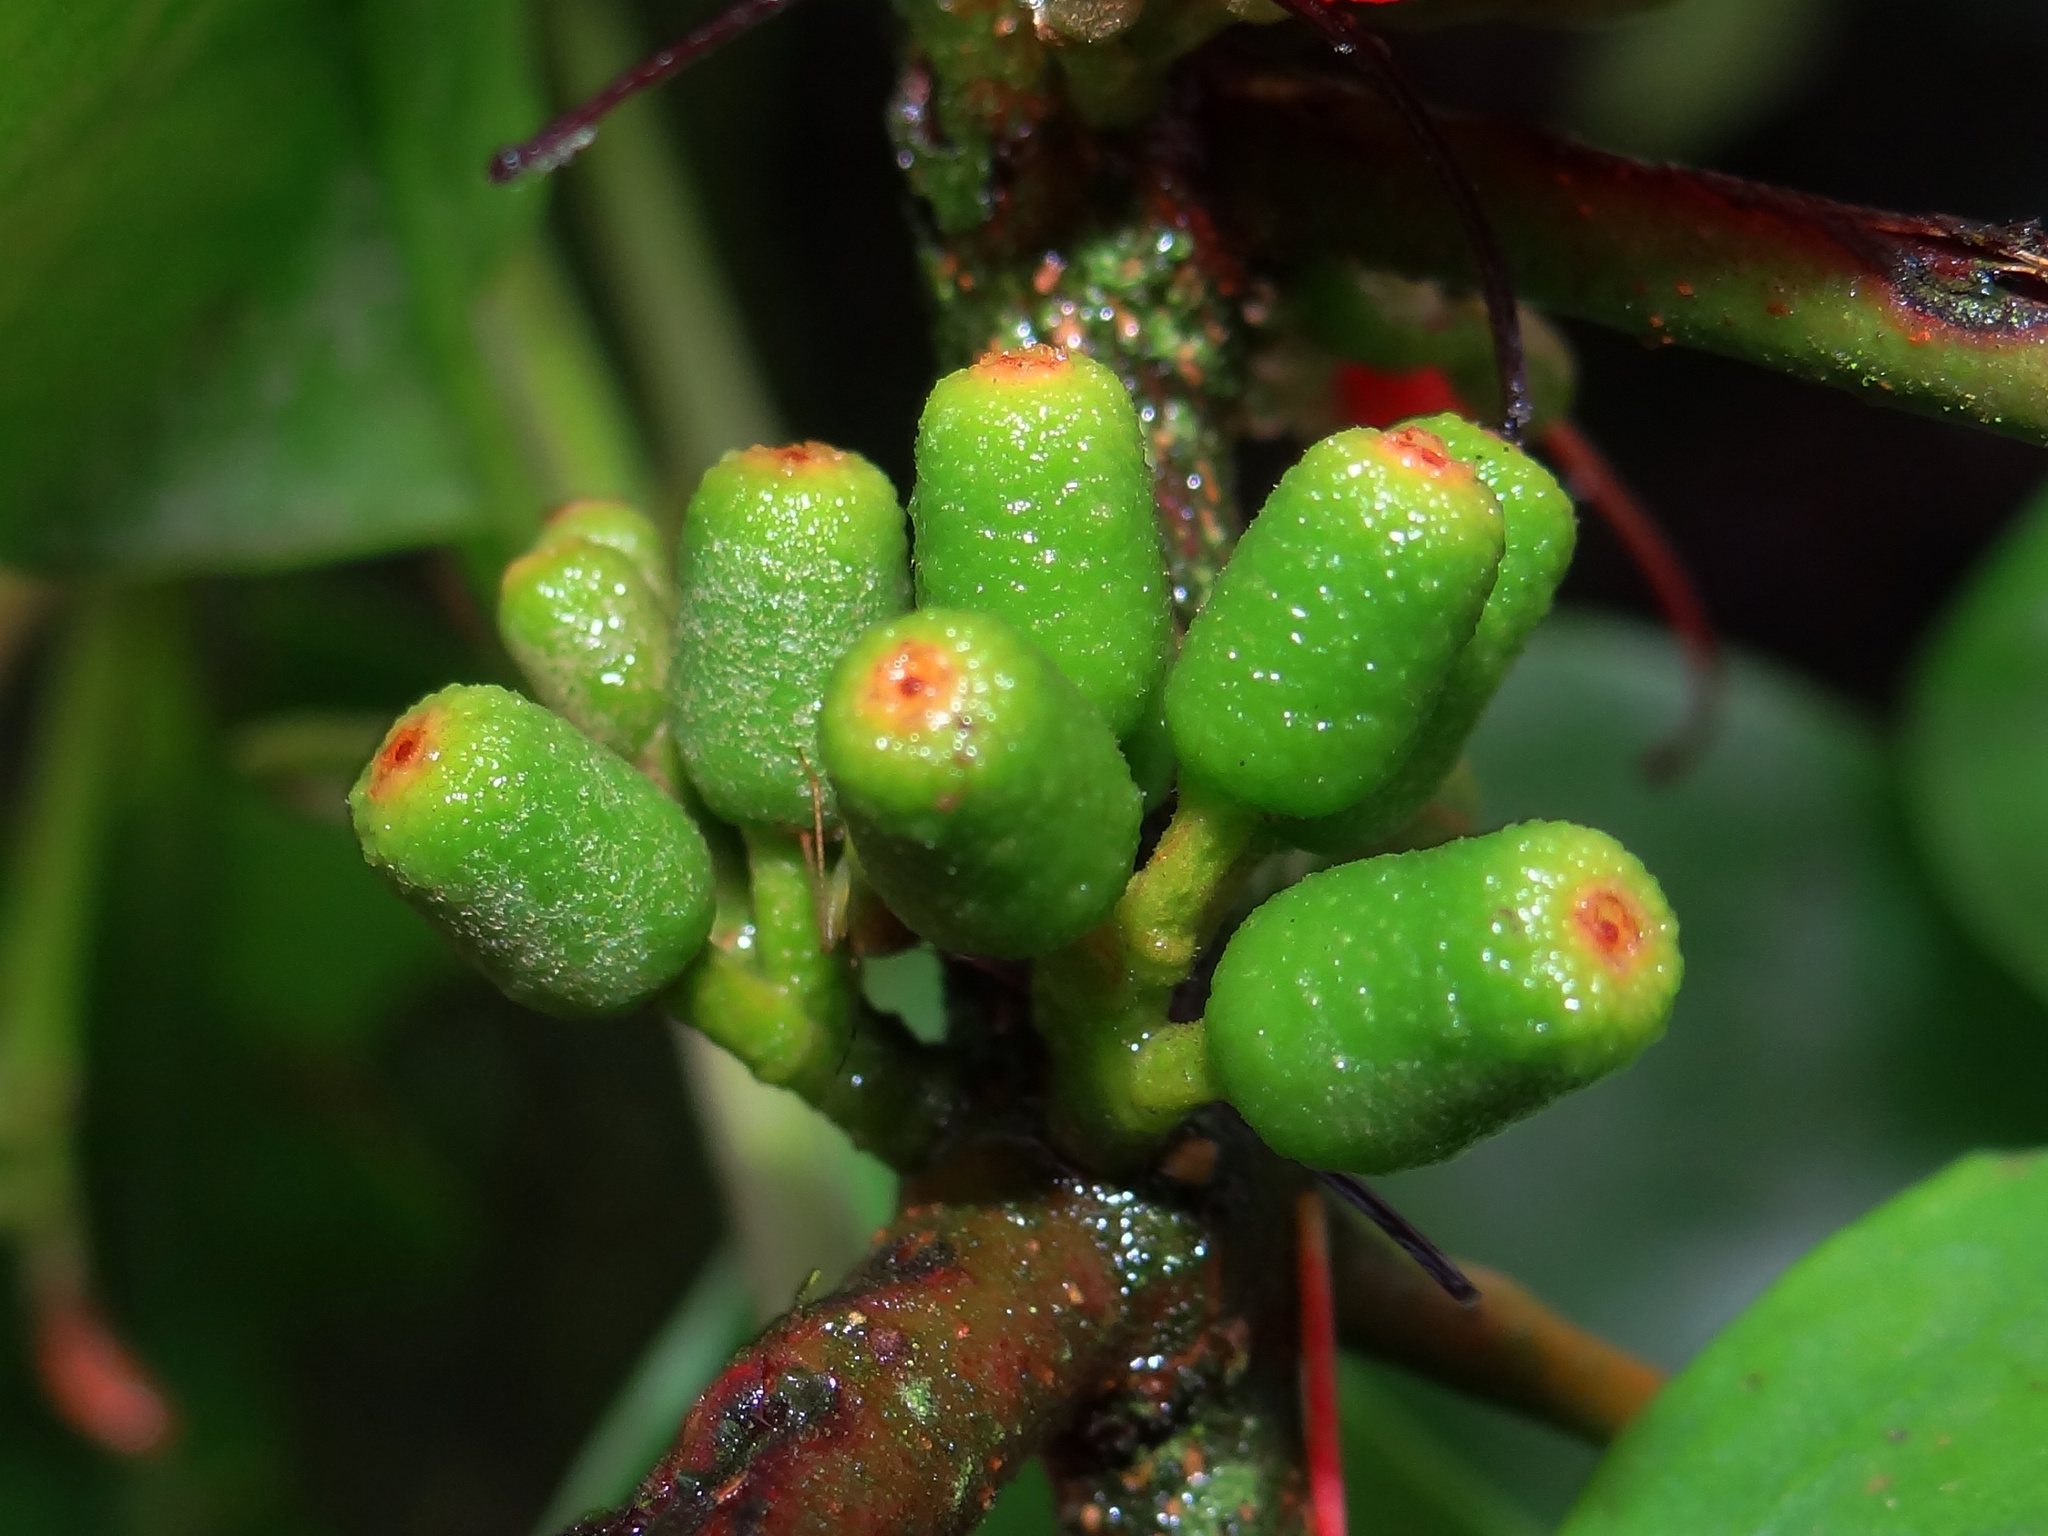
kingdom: Plantae
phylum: Tracheophyta
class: Magnoliopsida
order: Santalales
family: Loranthaceae
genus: Taxillus
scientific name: Taxillus liquidambaricola
